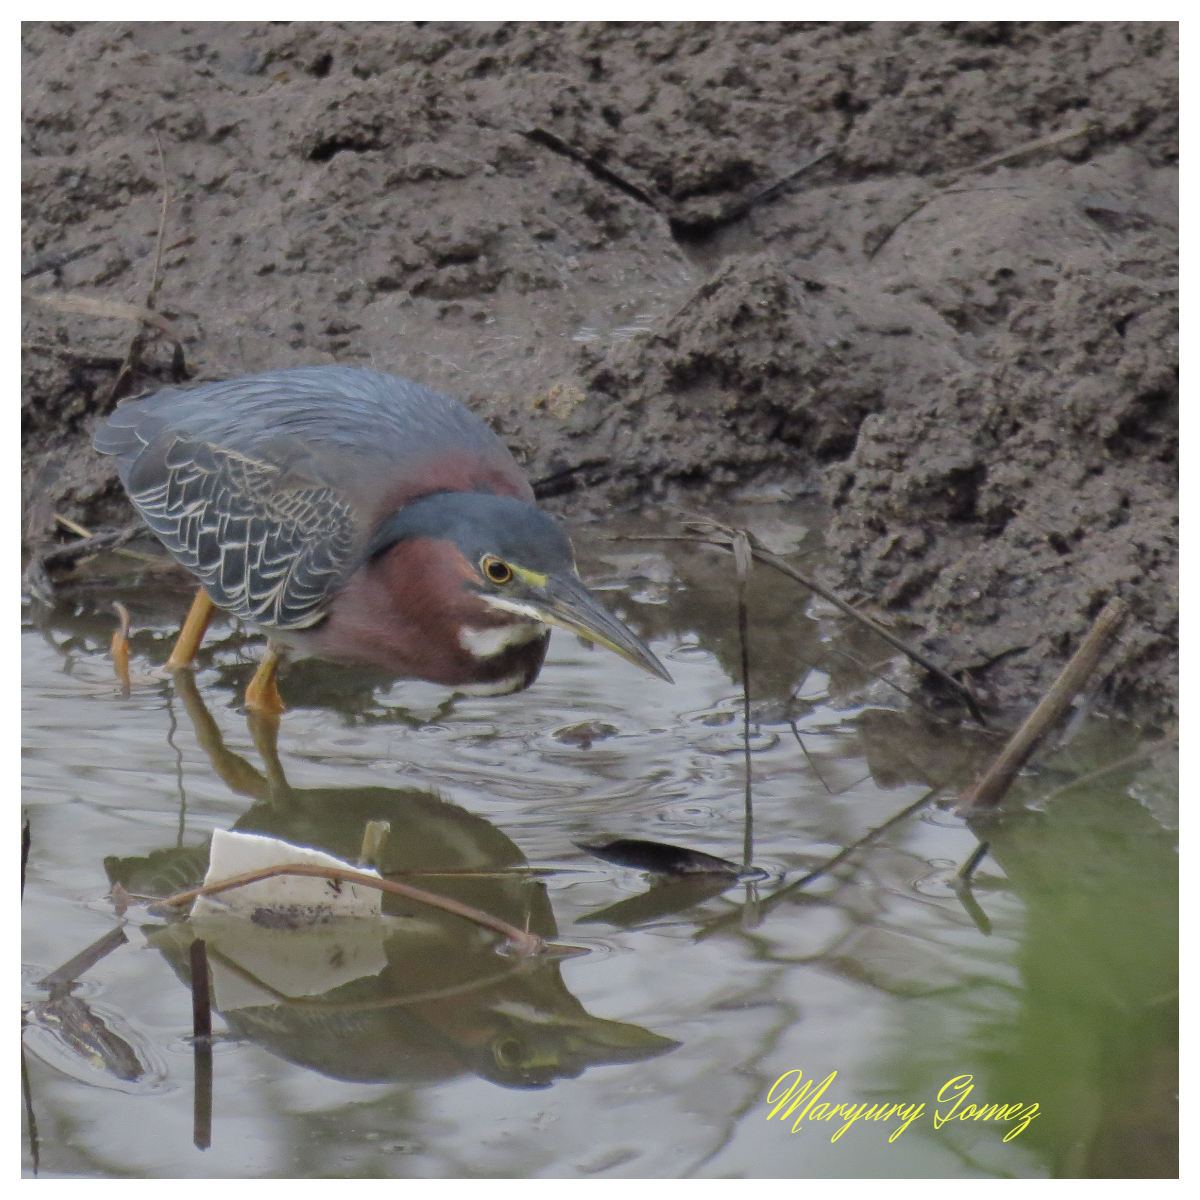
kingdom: Animalia
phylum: Chordata
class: Aves
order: Pelecaniformes
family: Ardeidae
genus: Butorides
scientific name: Butorides virescens
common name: Green heron
